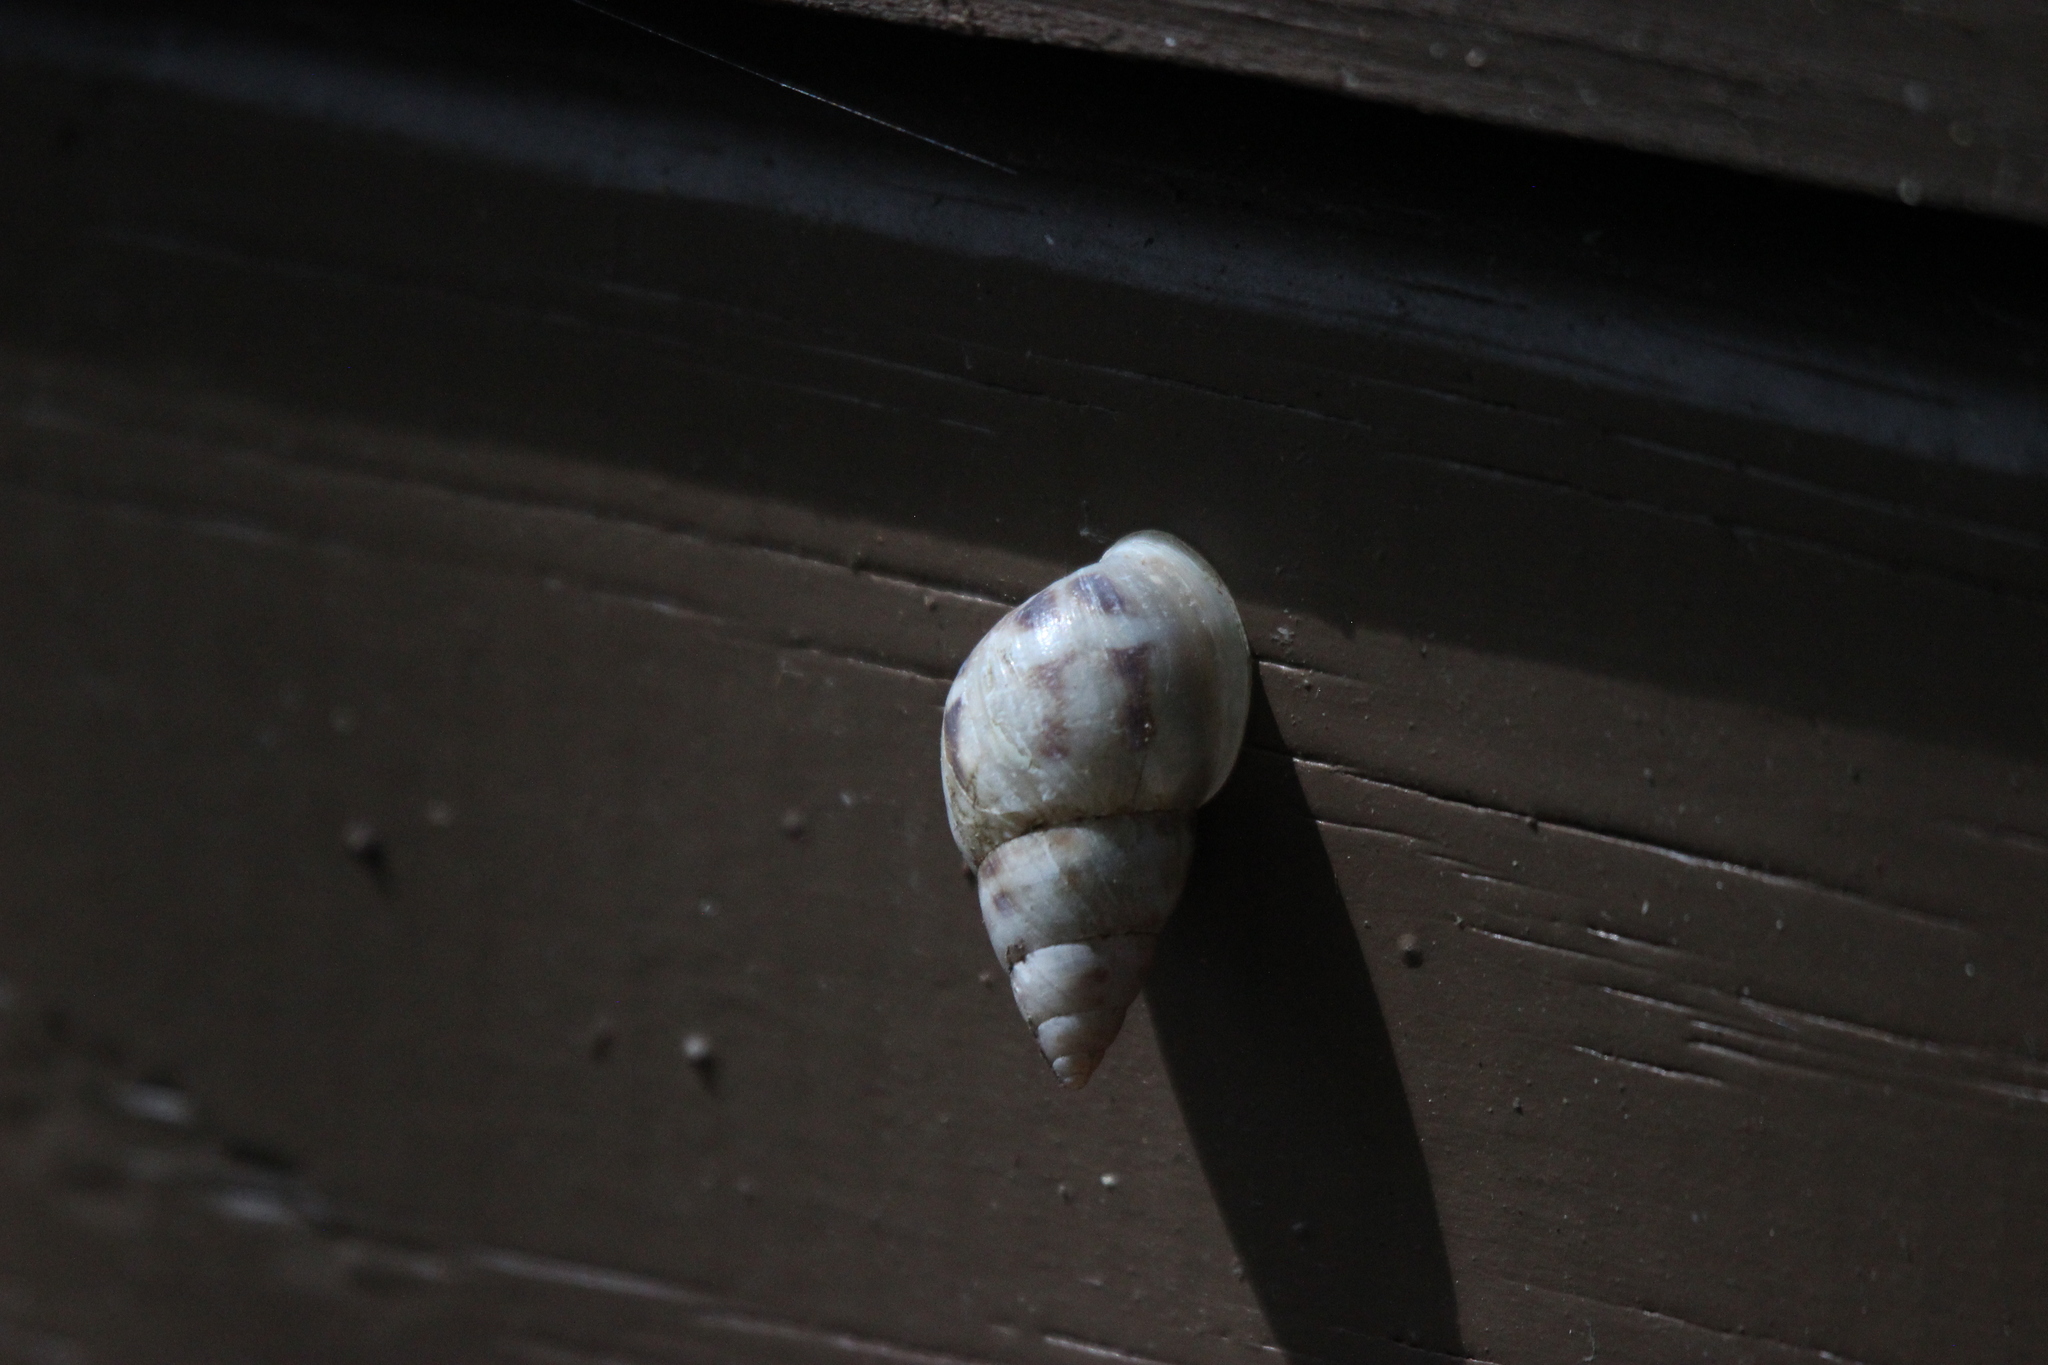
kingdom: Animalia
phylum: Mollusca
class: Gastropoda
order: Stylommatophora
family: Bulimulidae
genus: Drymaeus
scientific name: Drymaeus dormani
